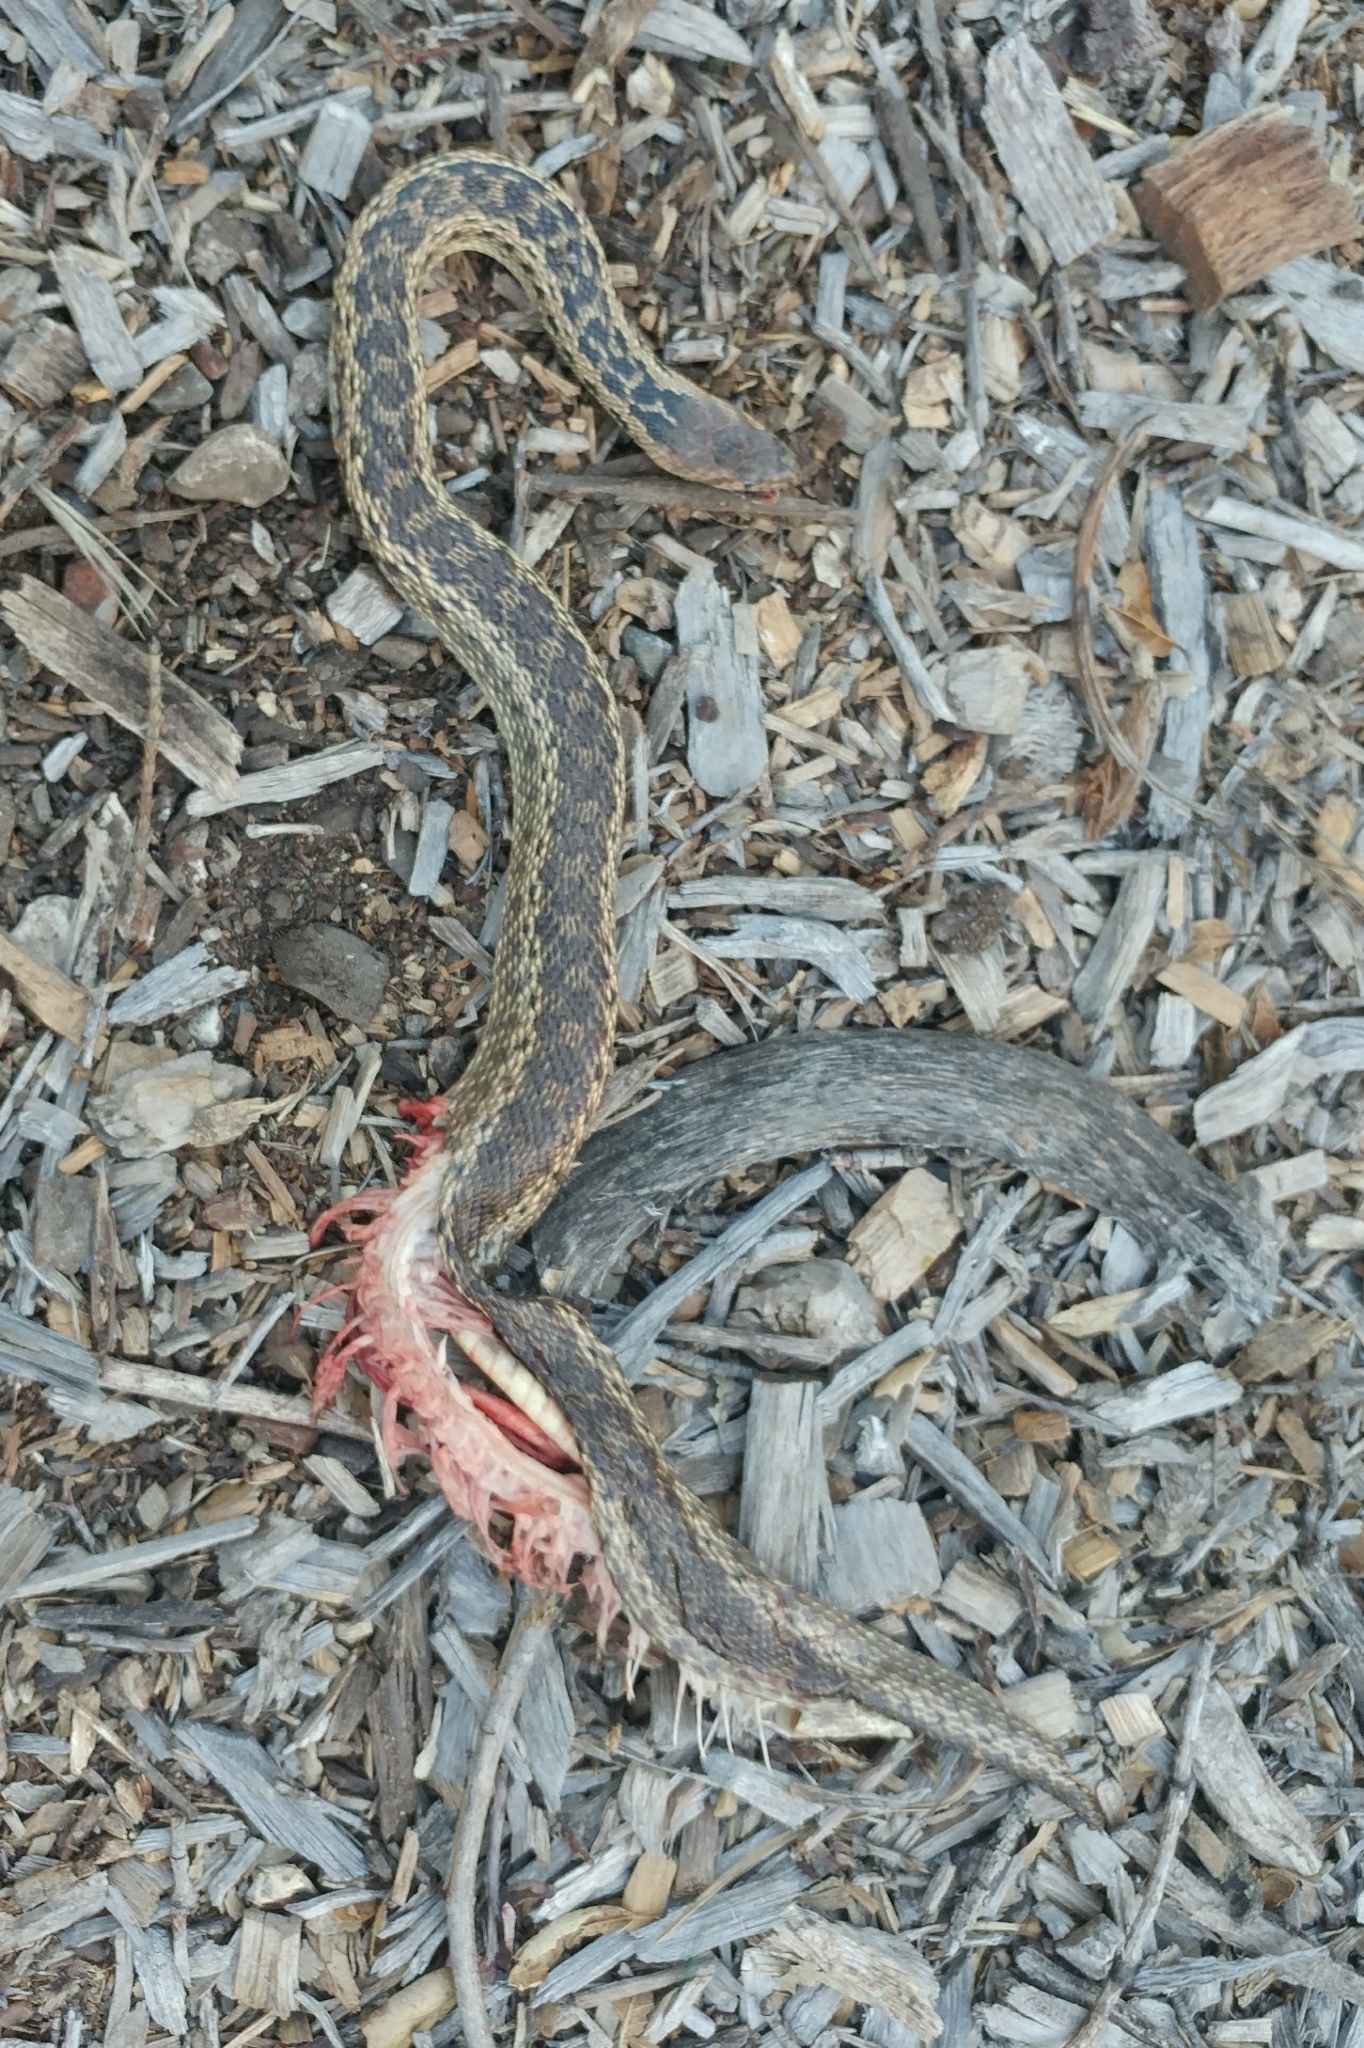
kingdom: Animalia
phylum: Chordata
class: Squamata
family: Colubridae
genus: Pituophis
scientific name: Pituophis catenifer
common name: Gopher snake
